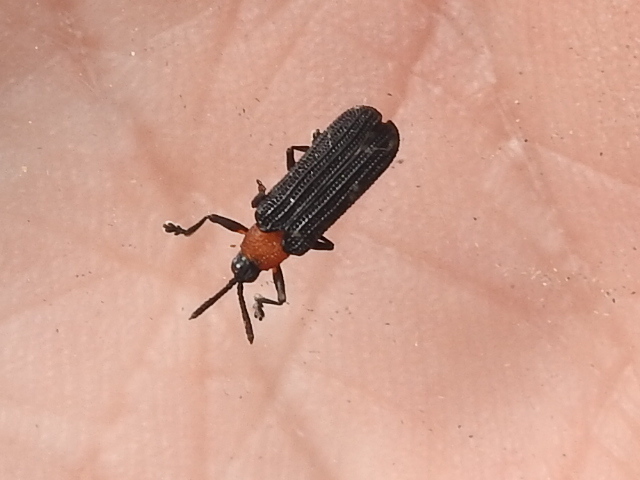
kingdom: Animalia
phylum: Arthropoda
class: Insecta
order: Coleoptera
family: Chrysomelidae
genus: Chalepus
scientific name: Chalepus bicolor
